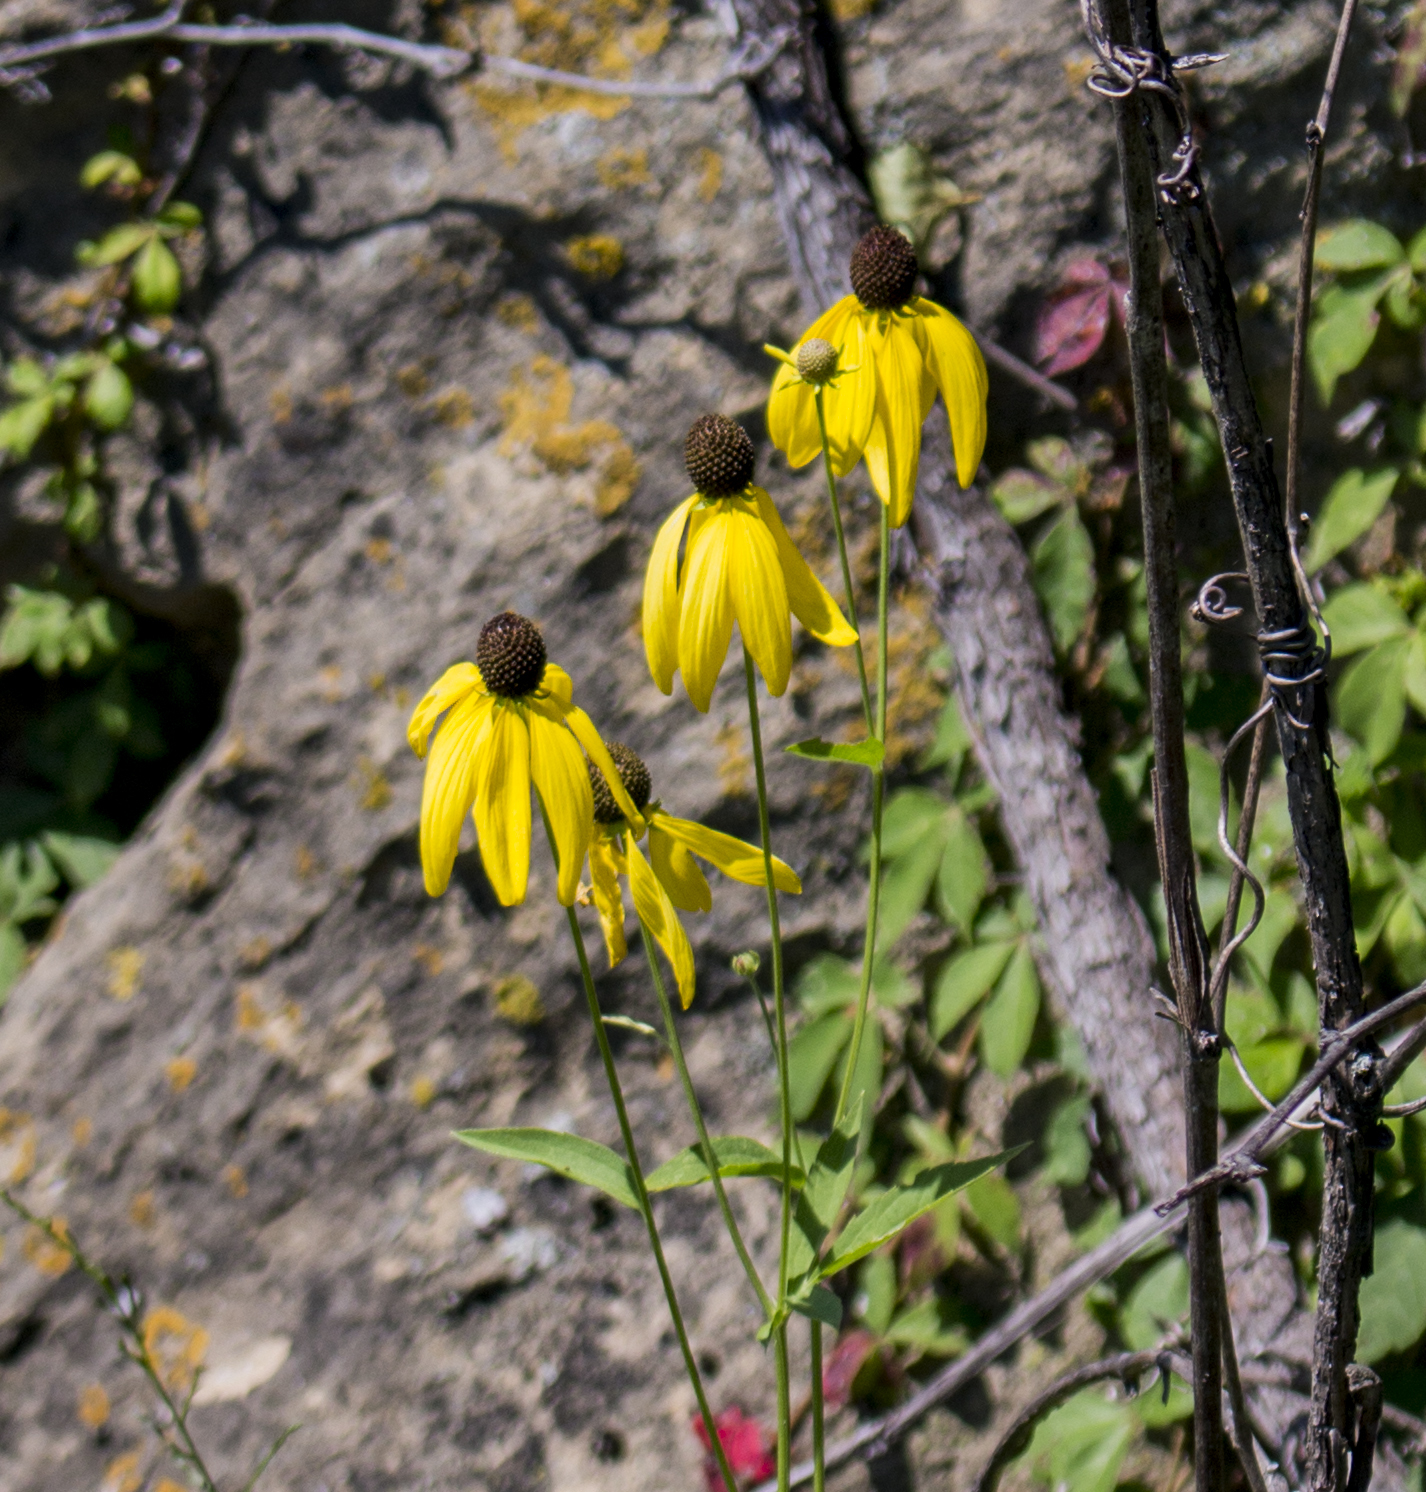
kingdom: Plantae
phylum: Tracheophyta
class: Magnoliopsida
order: Asterales
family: Asteraceae
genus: Ratibida
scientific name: Ratibida pinnata
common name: Drooping prairie-coneflower
